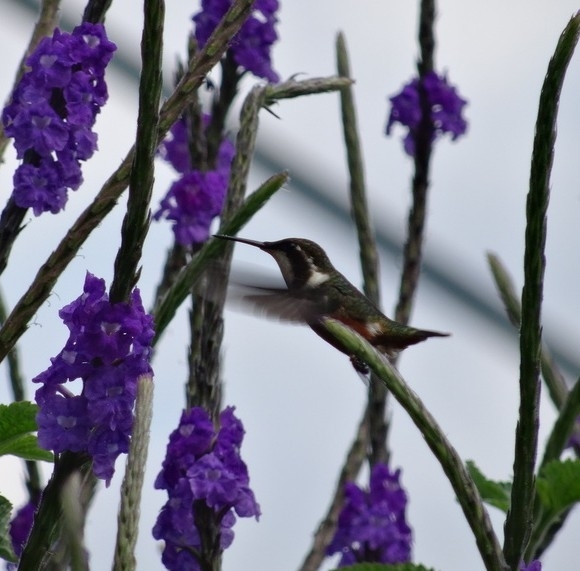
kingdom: Animalia
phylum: Chordata
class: Aves
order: Apodiformes
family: Trochilidae
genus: Chaetocercus
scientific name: Chaetocercus mulsant
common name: White-bellied woodstar
